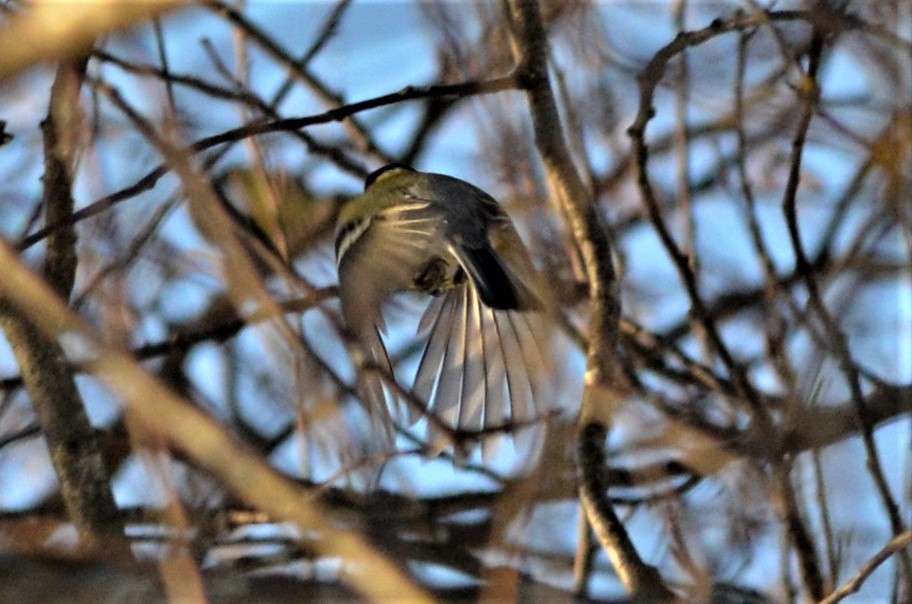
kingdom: Animalia
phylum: Chordata
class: Aves
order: Passeriformes
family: Paridae
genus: Parus
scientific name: Parus major
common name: Great tit
